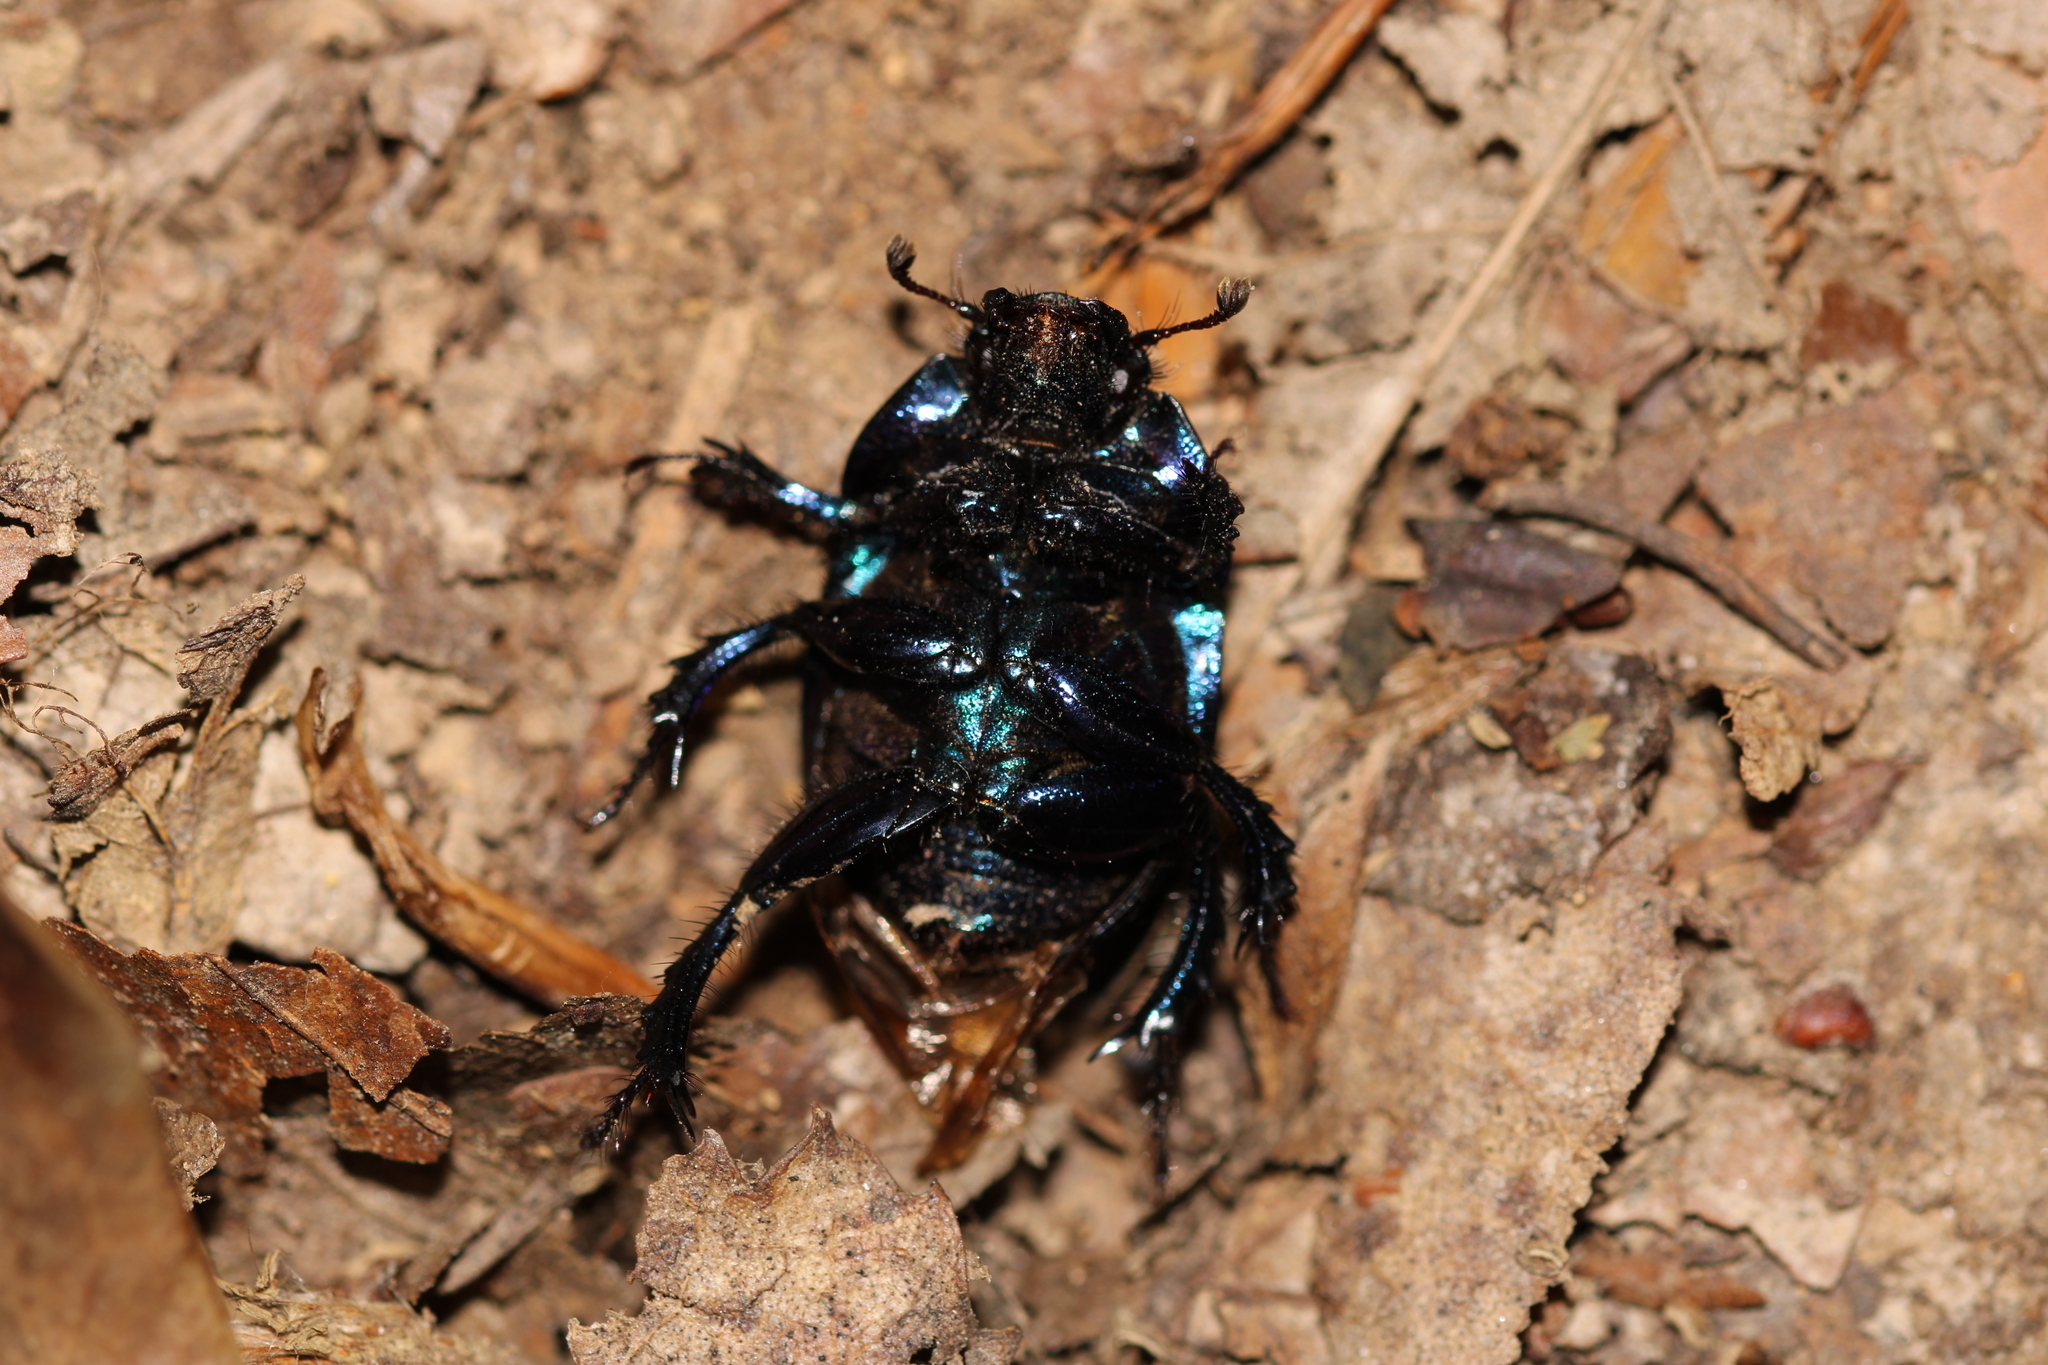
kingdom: Animalia
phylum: Arthropoda
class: Insecta
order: Coleoptera
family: Geotrupidae
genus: Anoplotrupes
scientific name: Anoplotrupes stercorosus
